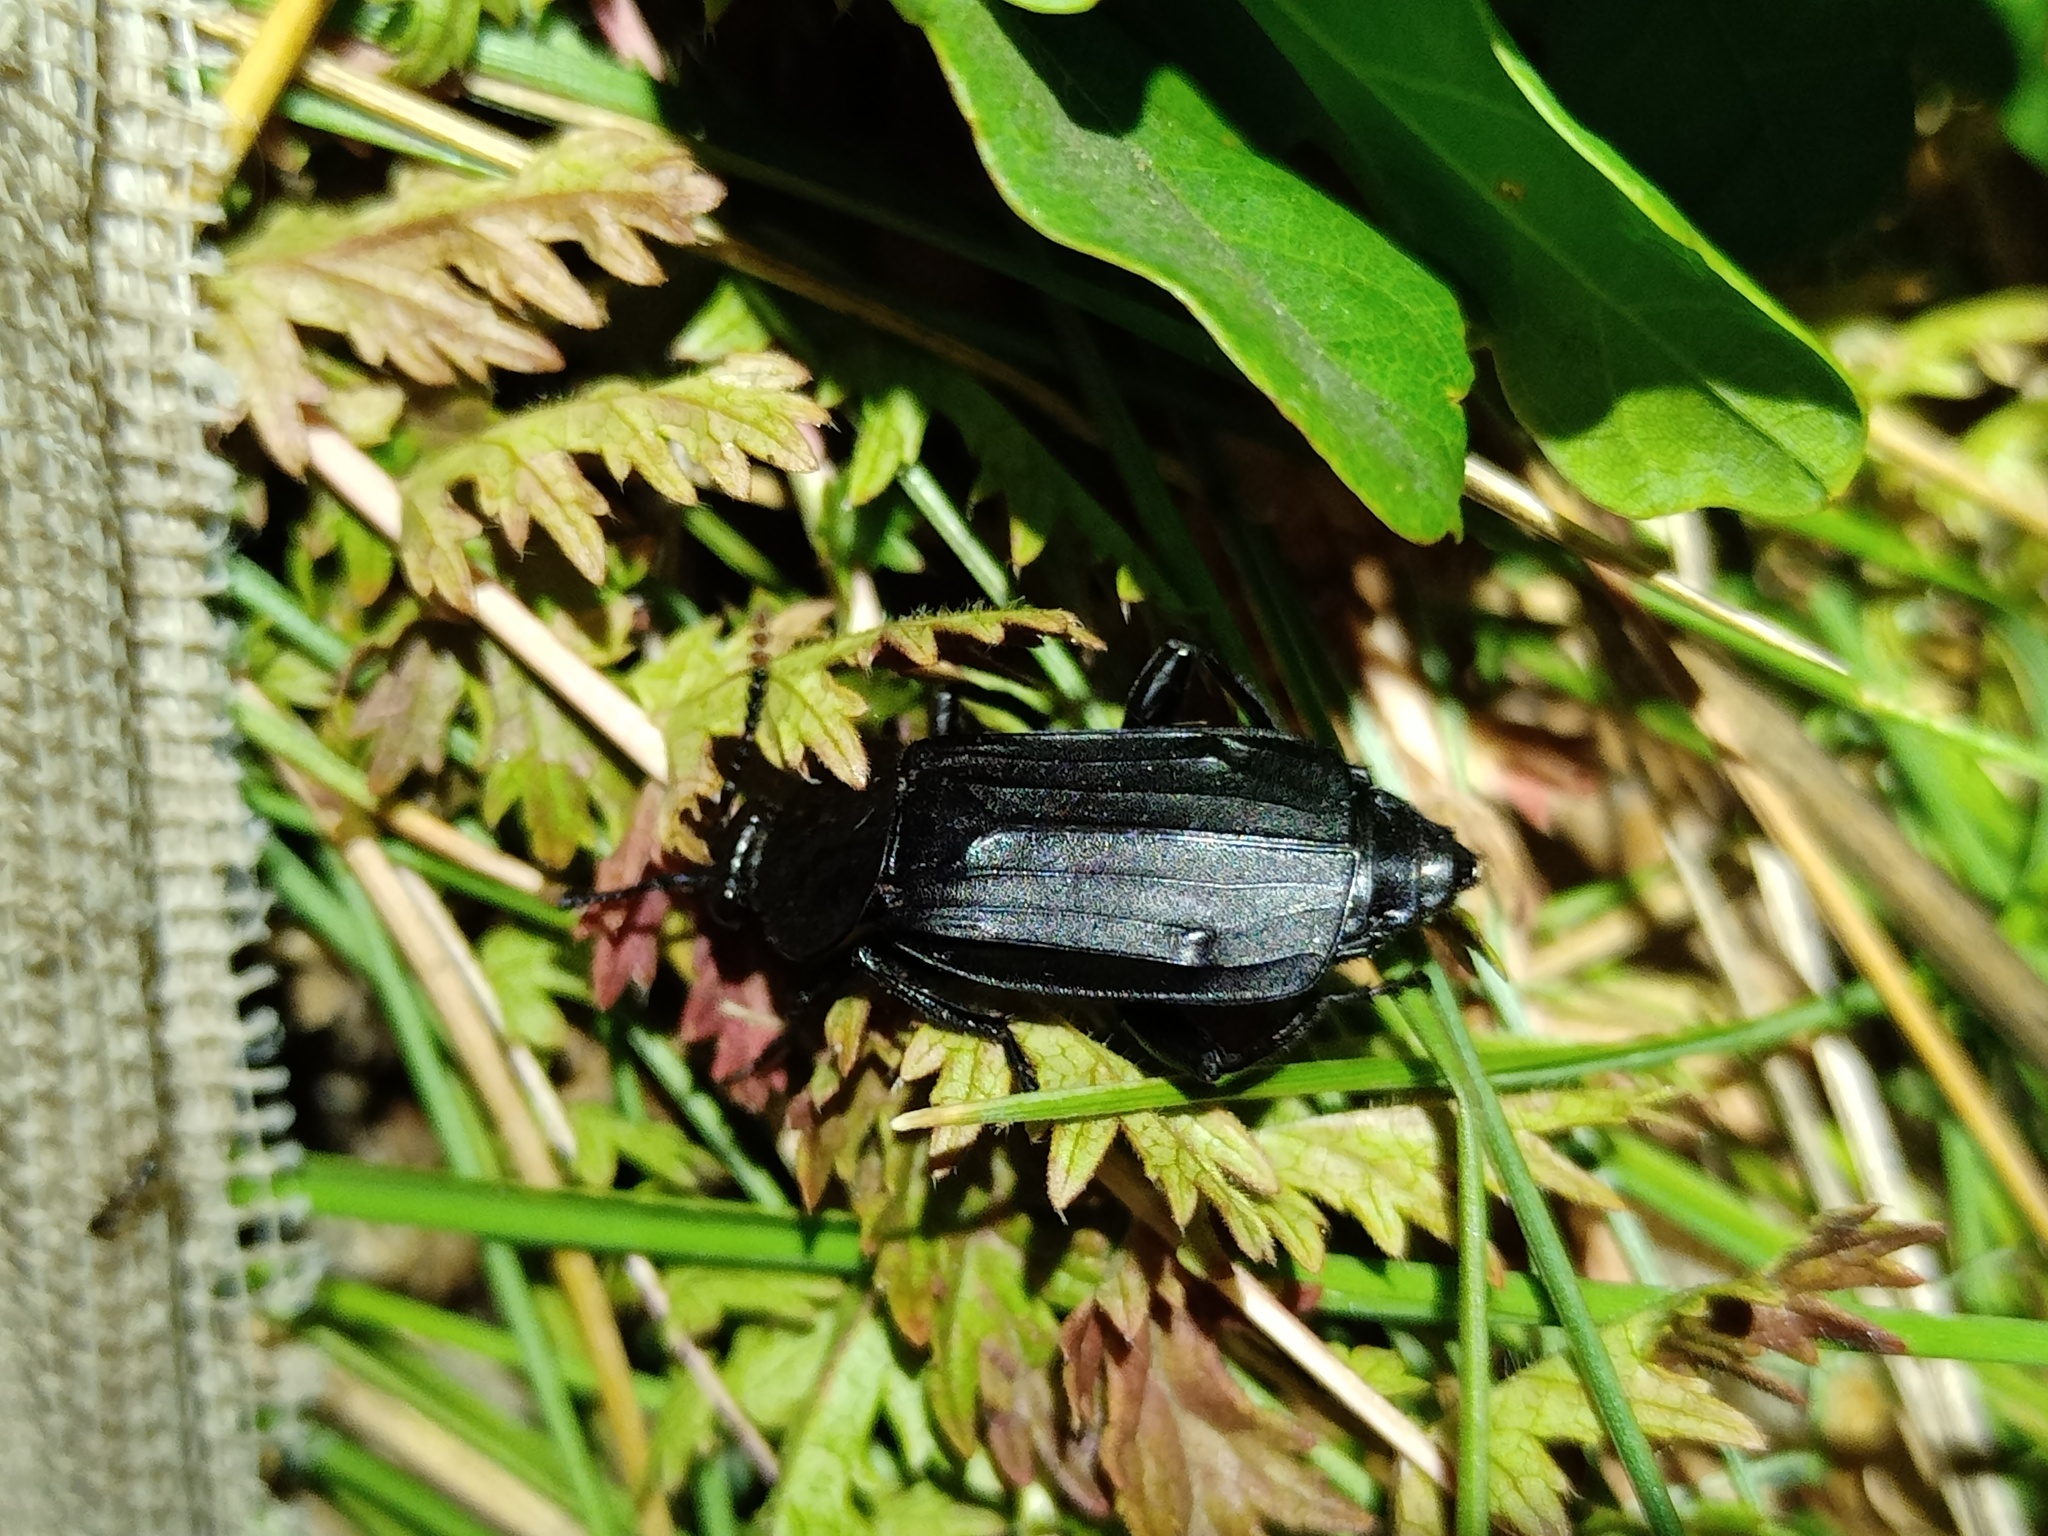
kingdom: Animalia
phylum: Arthropoda
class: Insecta
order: Coleoptera
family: Staphylinidae
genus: Necrodes
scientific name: Necrodes littoralis
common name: Shore sexton beetle
